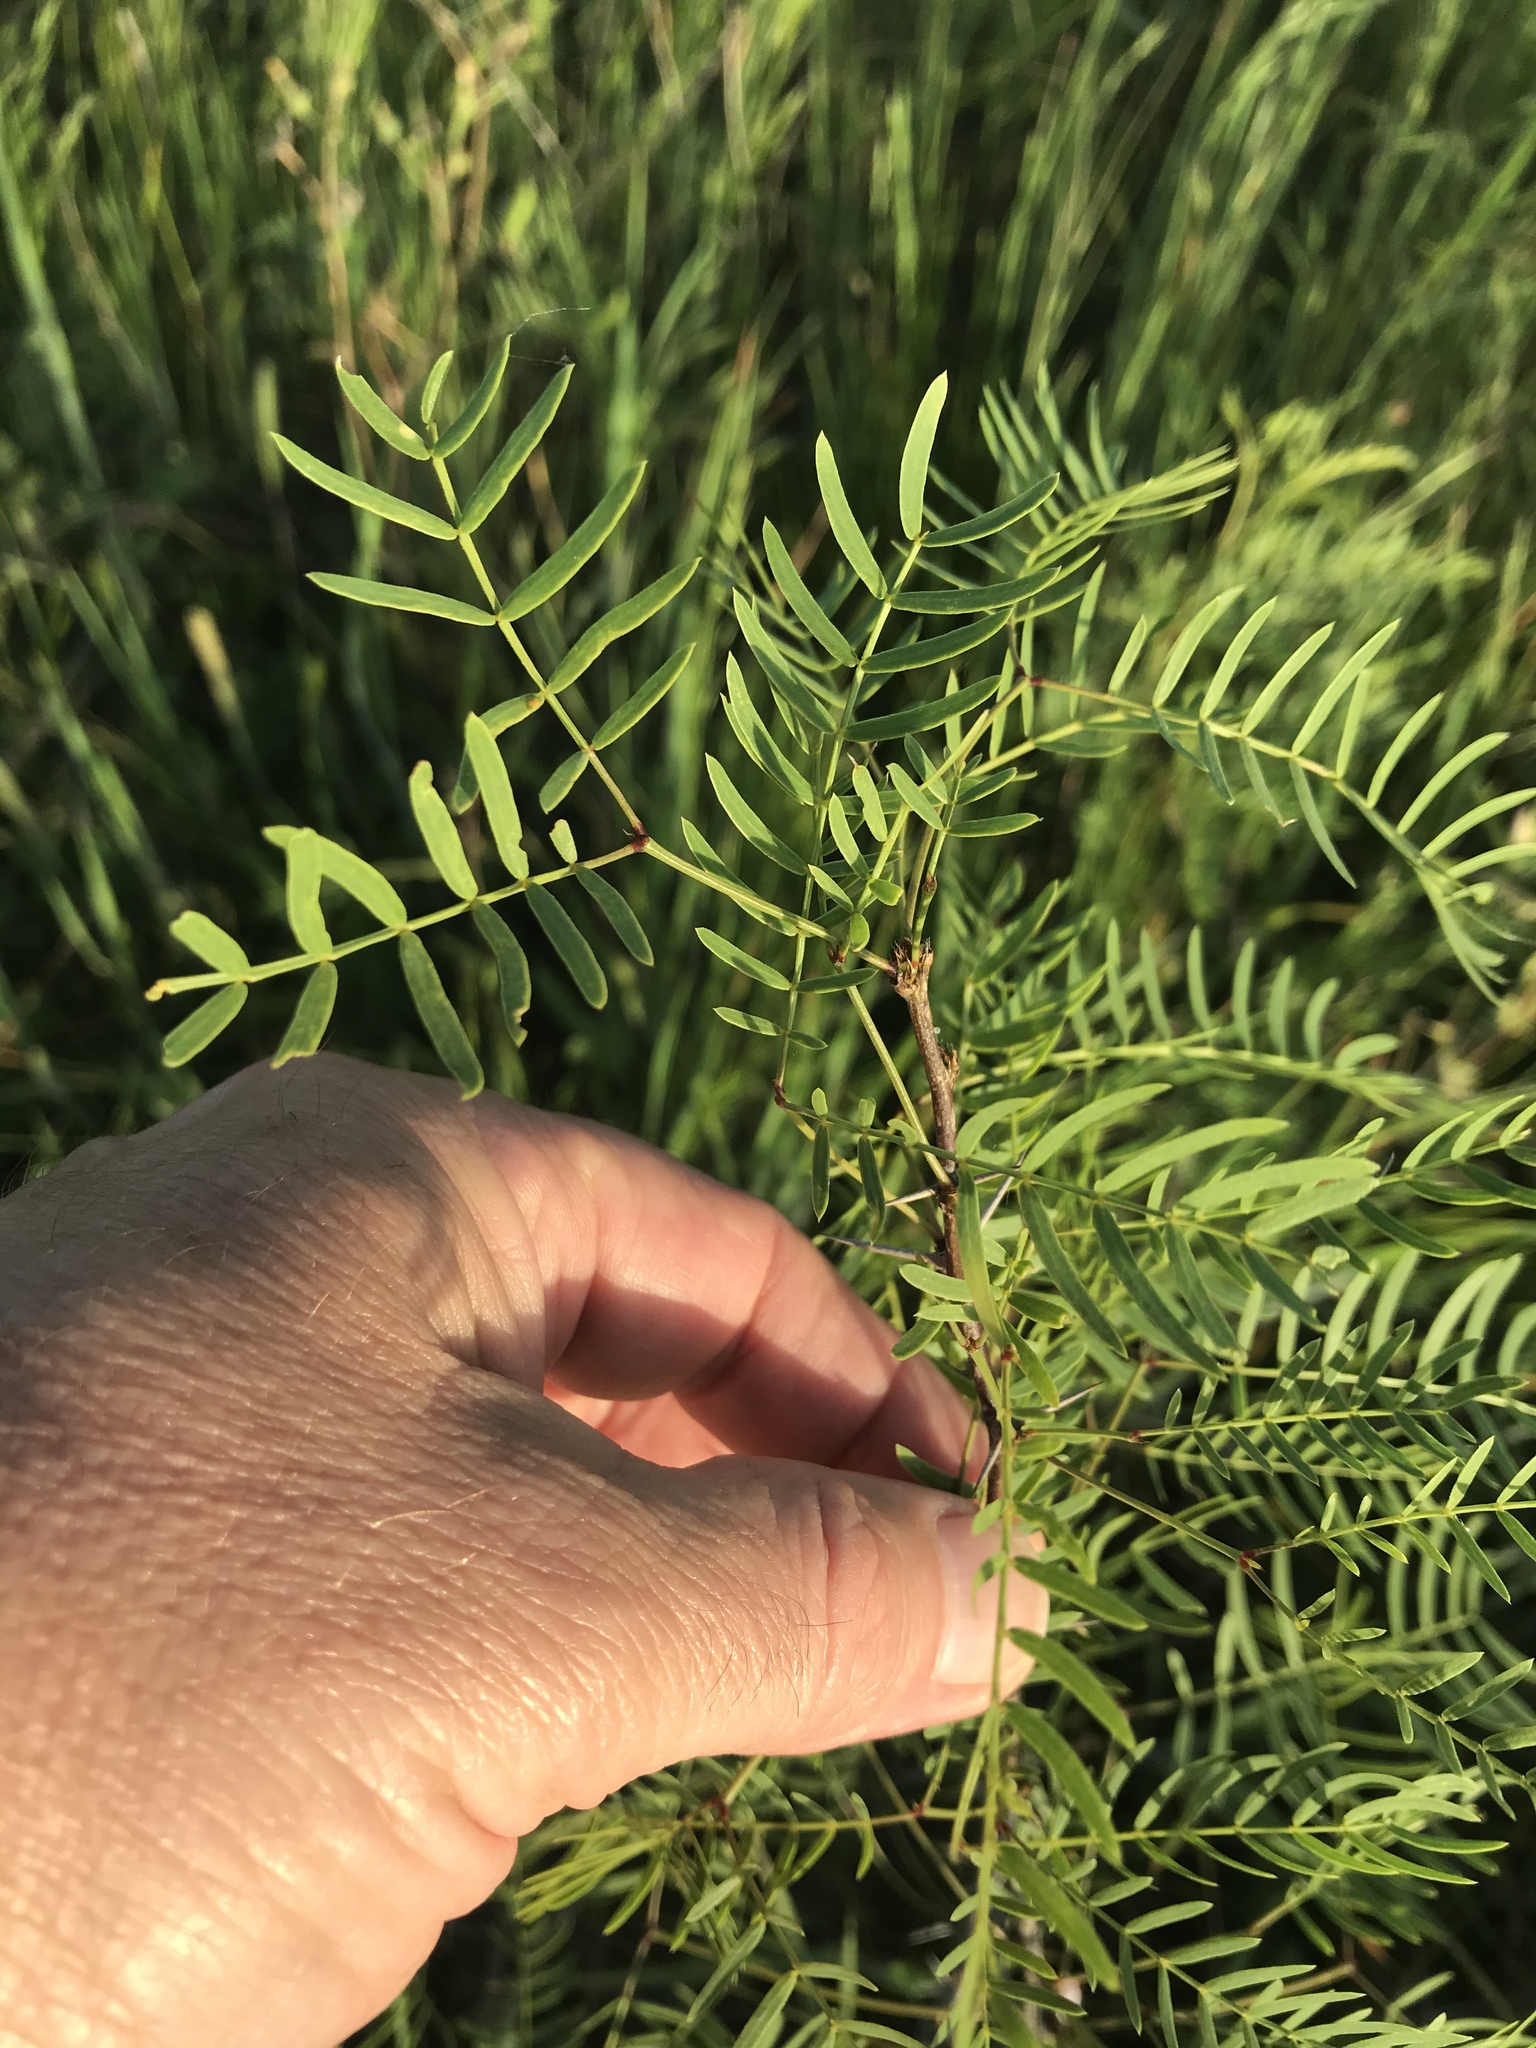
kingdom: Plantae
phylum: Tracheophyta
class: Magnoliopsida
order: Fabales
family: Fabaceae
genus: Prosopis
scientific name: Prosopis glandulosa
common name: Honey mesquite
